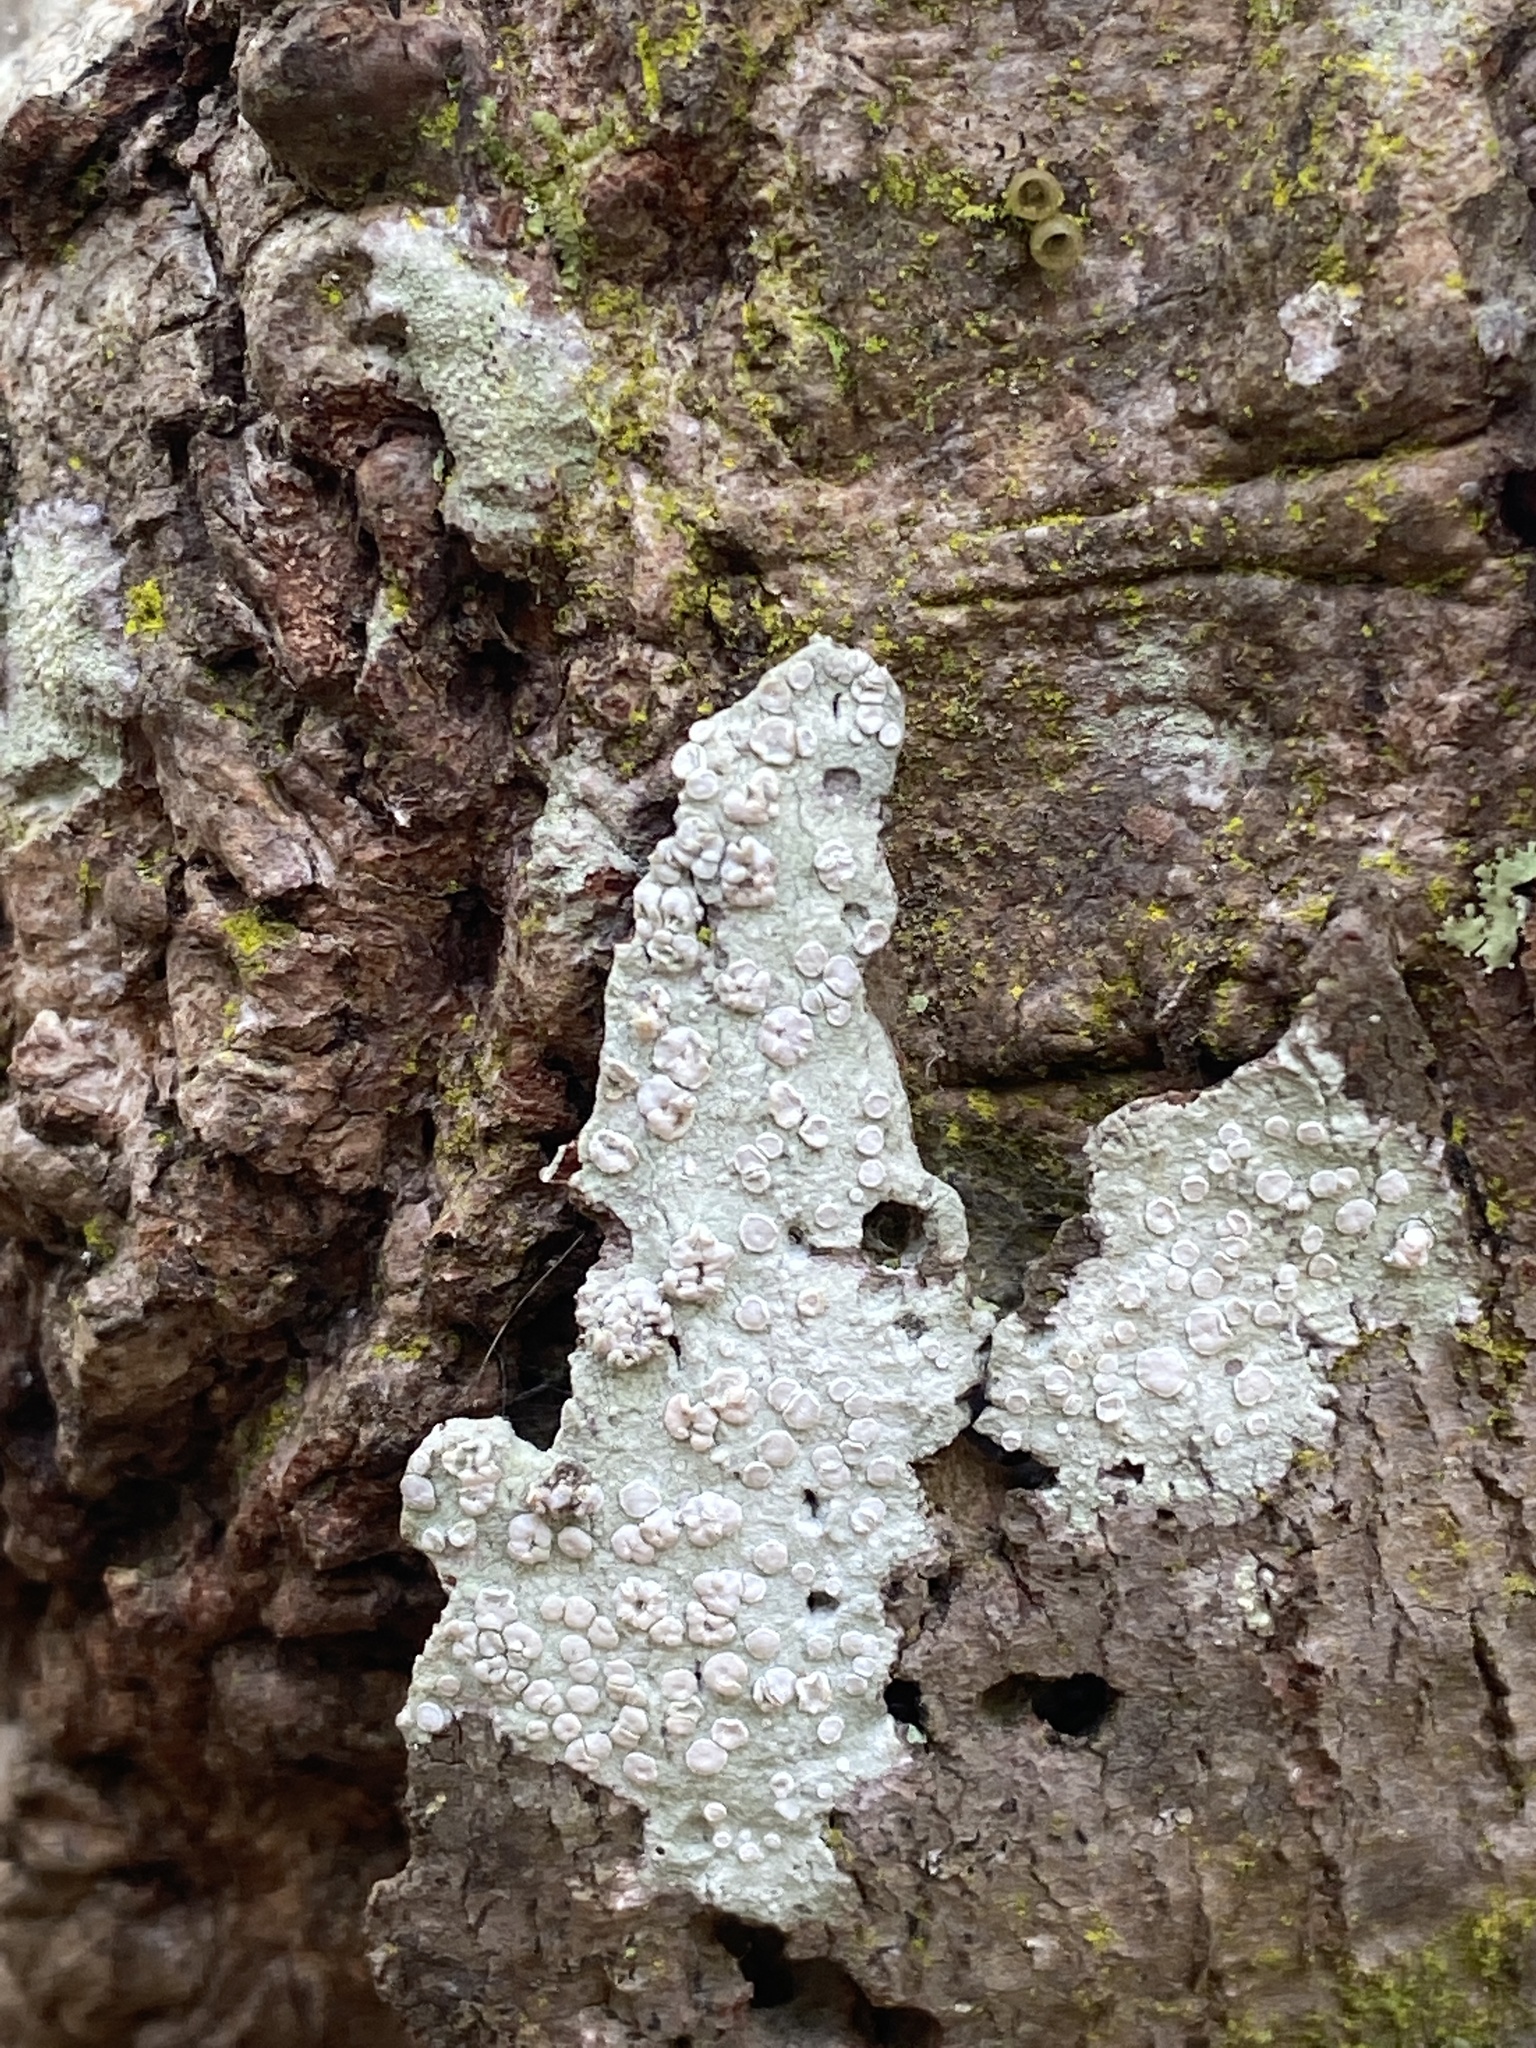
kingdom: Fungi
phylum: Ascomycota
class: Lecanoromycetes
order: Lecanorales
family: Lecanoraceae
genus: Lecanora
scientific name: Lecanora caesiorubella
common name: Frosted rim-lichen
